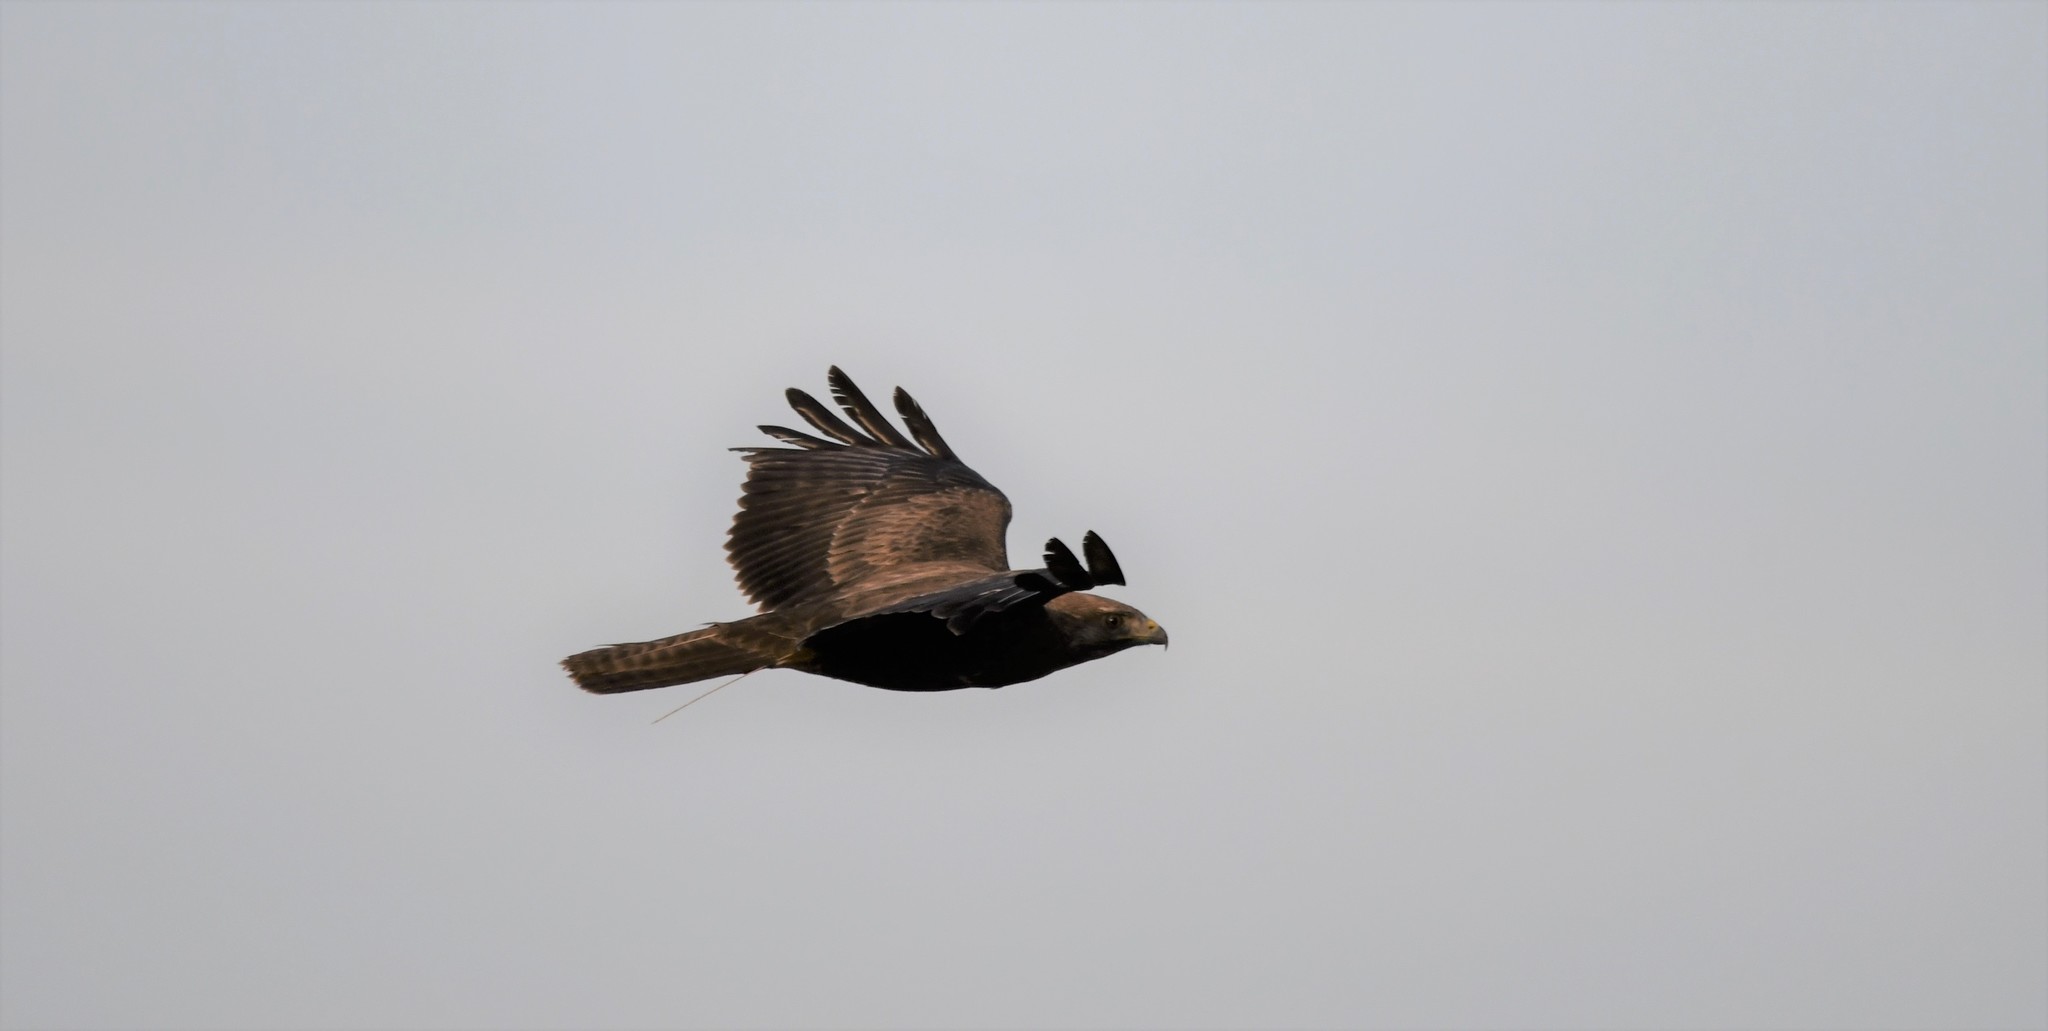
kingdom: Animalia
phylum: Chordata
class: Aves
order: Accipitriformes
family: Accipitridae
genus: Buteo
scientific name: Buteo buteo
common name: Common buzzard
